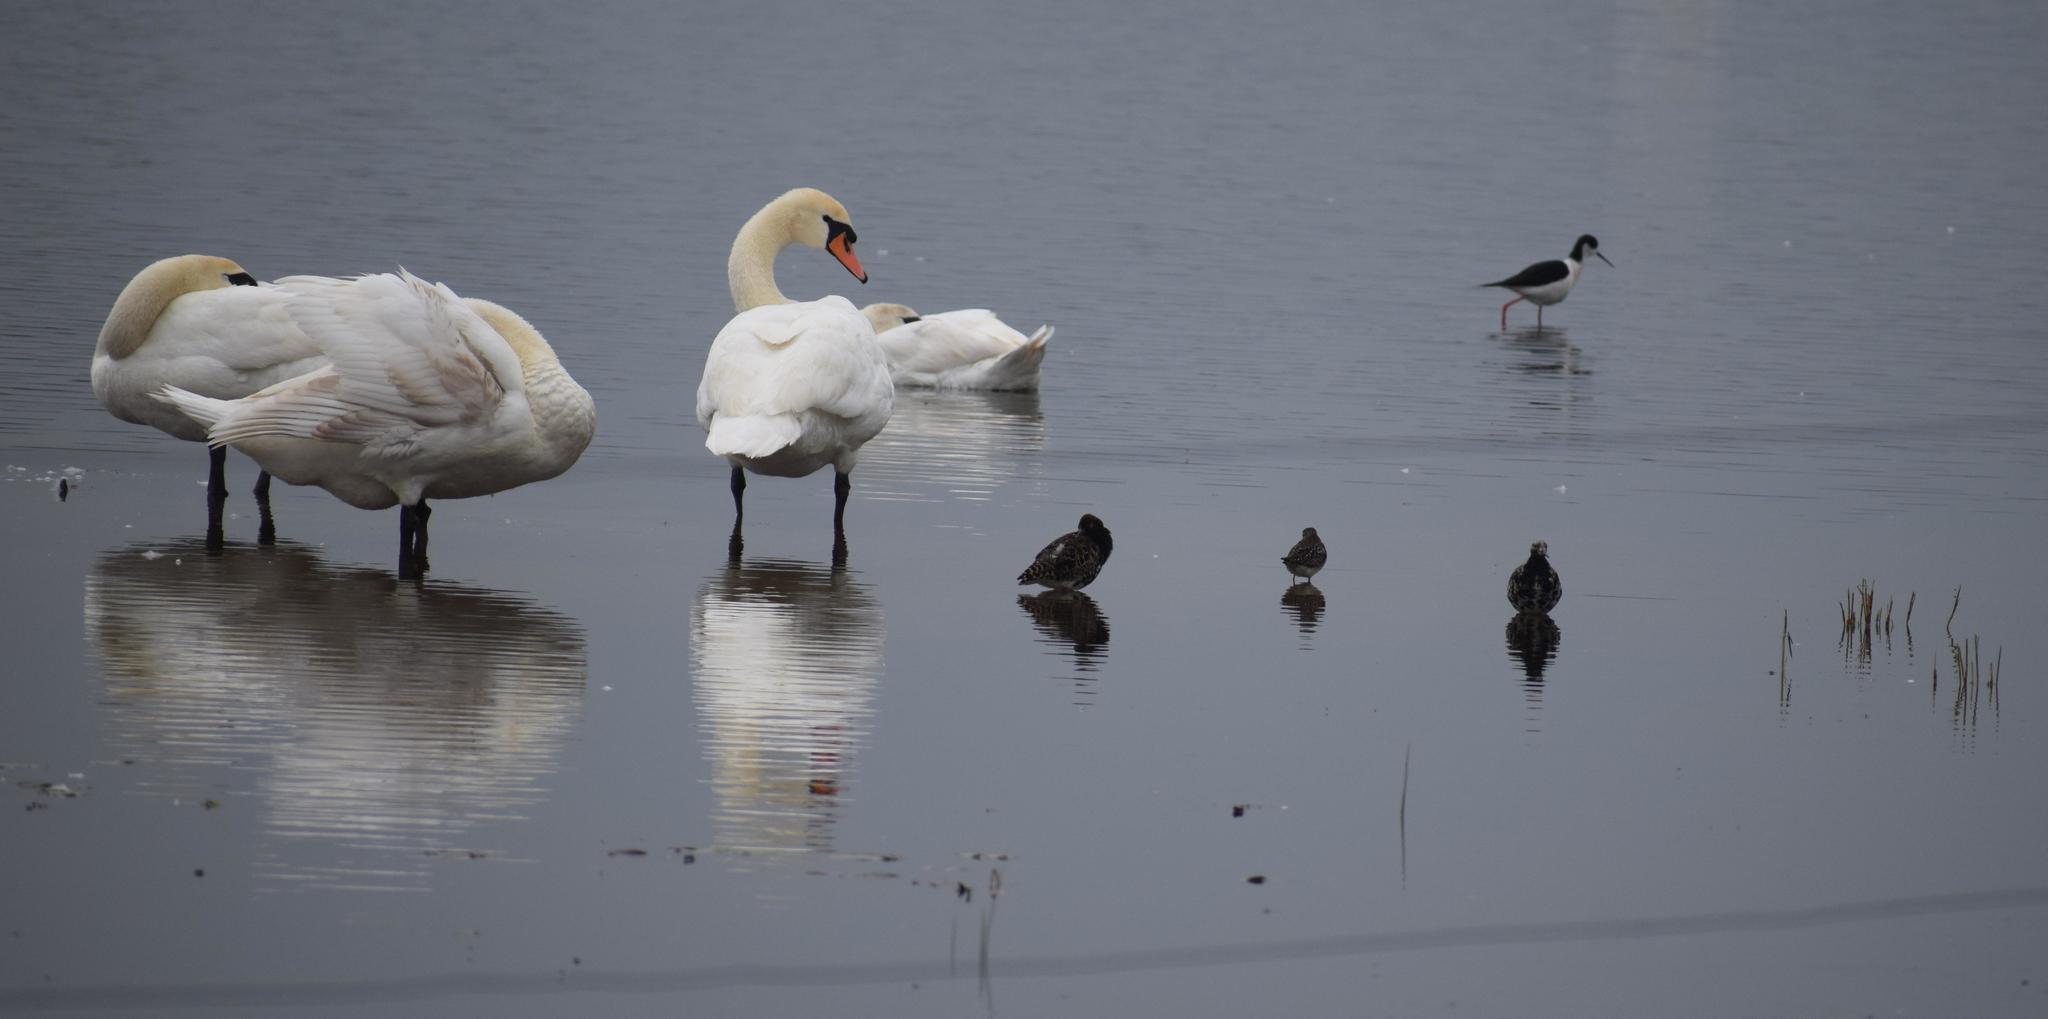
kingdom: Animalia
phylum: Chordata
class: Aves
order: Anseriformes
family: Anatidae
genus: Cygnus
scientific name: Cygnus olor
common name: Mute swan
